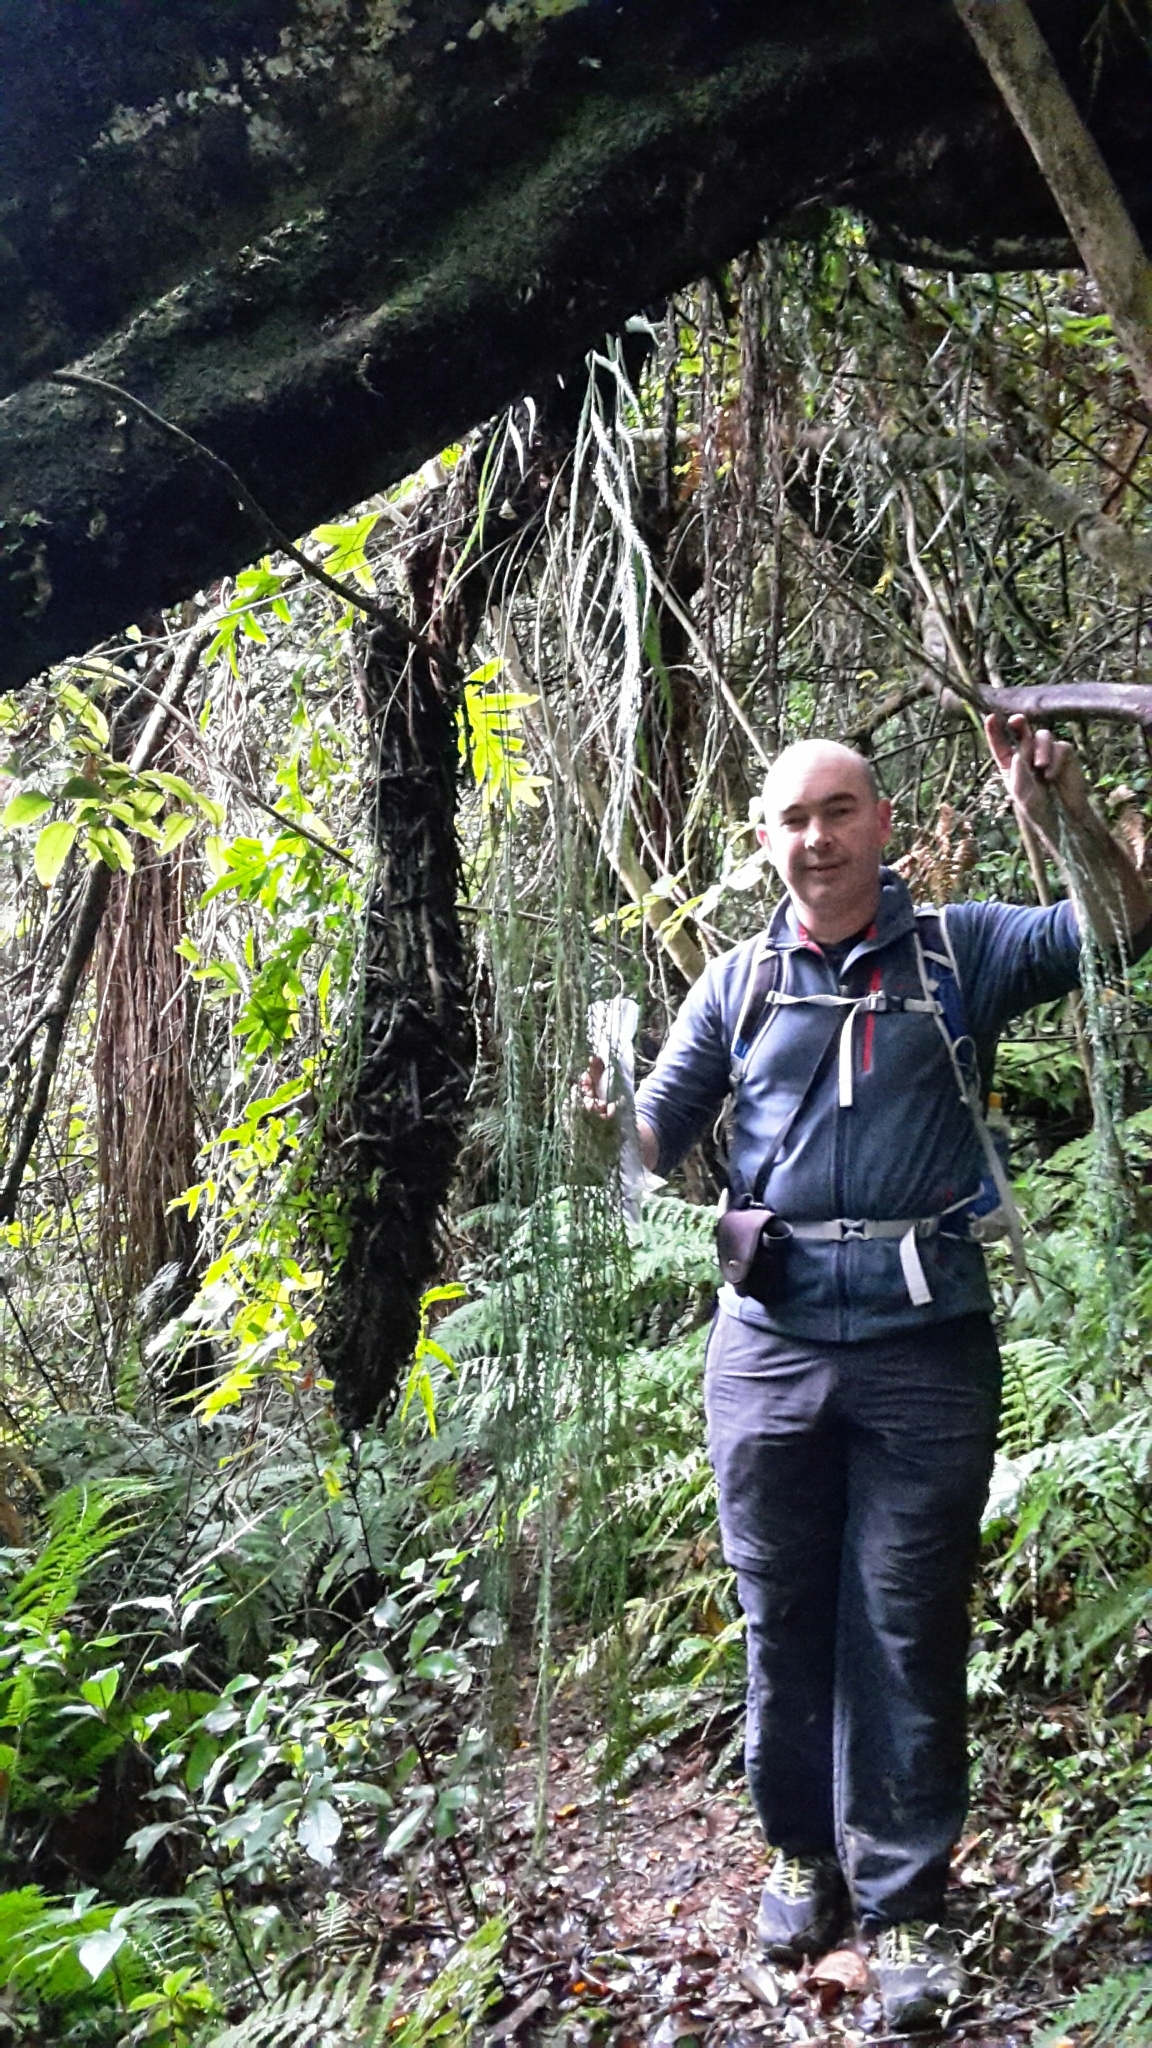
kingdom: Plantae
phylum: Tracheophyta
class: Polypodiopsida
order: Polypodiales
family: Aspleniaceae
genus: Asplenium
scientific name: Asplenium flaccidum
